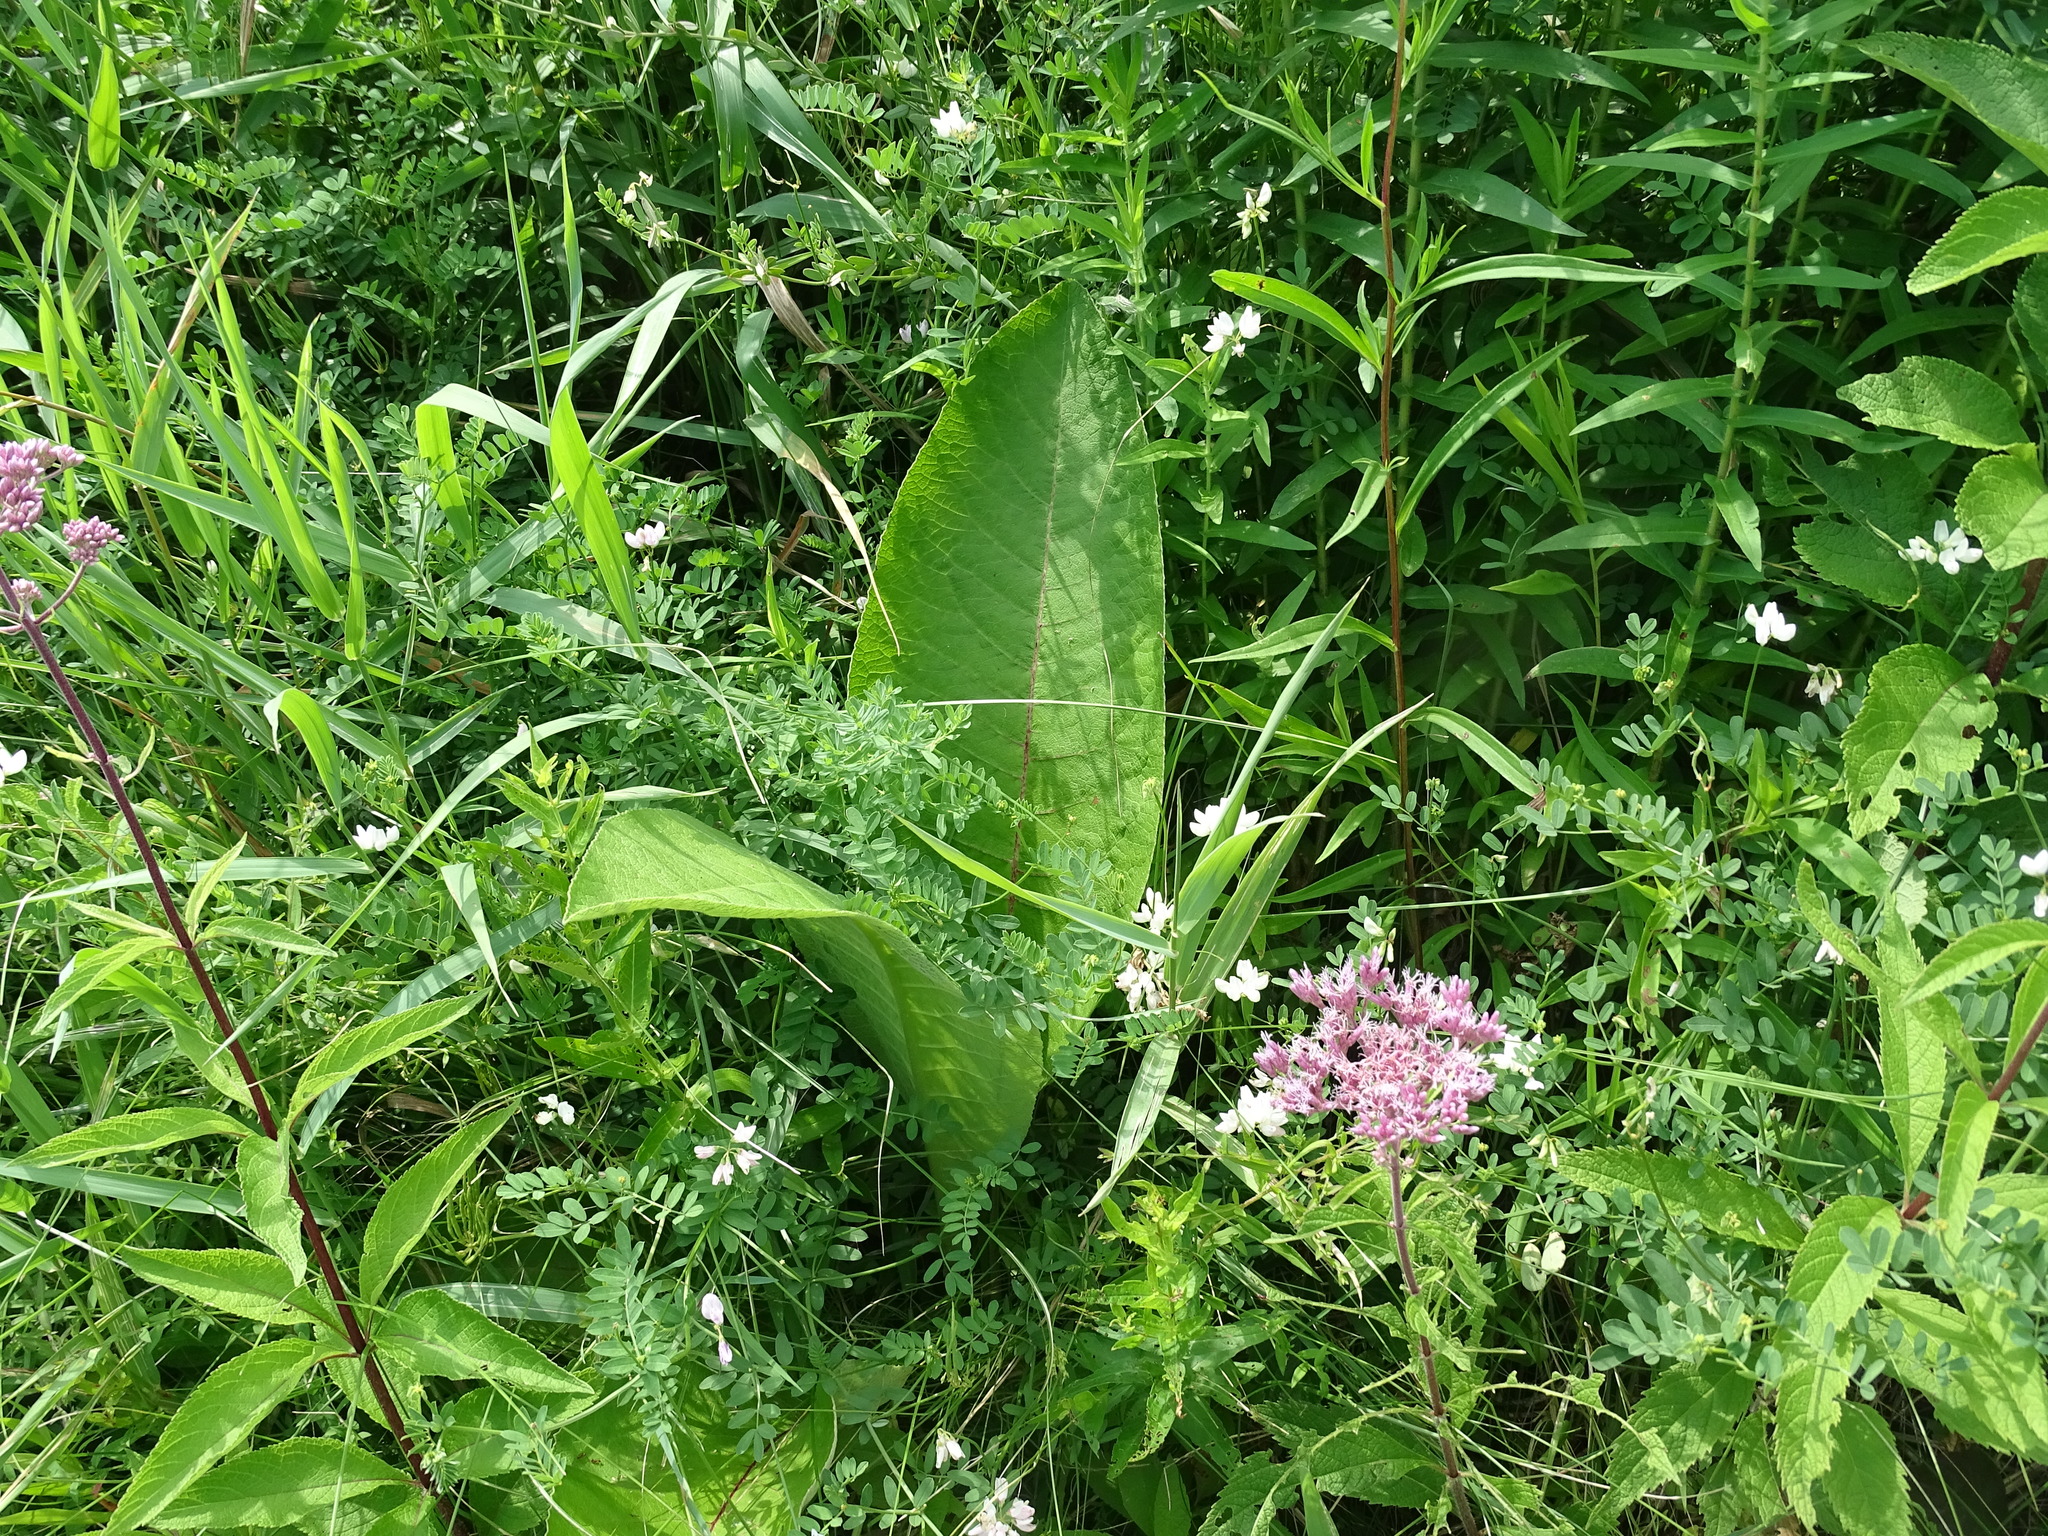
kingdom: Plantae
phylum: Tracheophyta
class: Magnoliopsida
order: Asterales
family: Asteraceae
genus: Inula
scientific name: Inula helenium
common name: Elecampane
